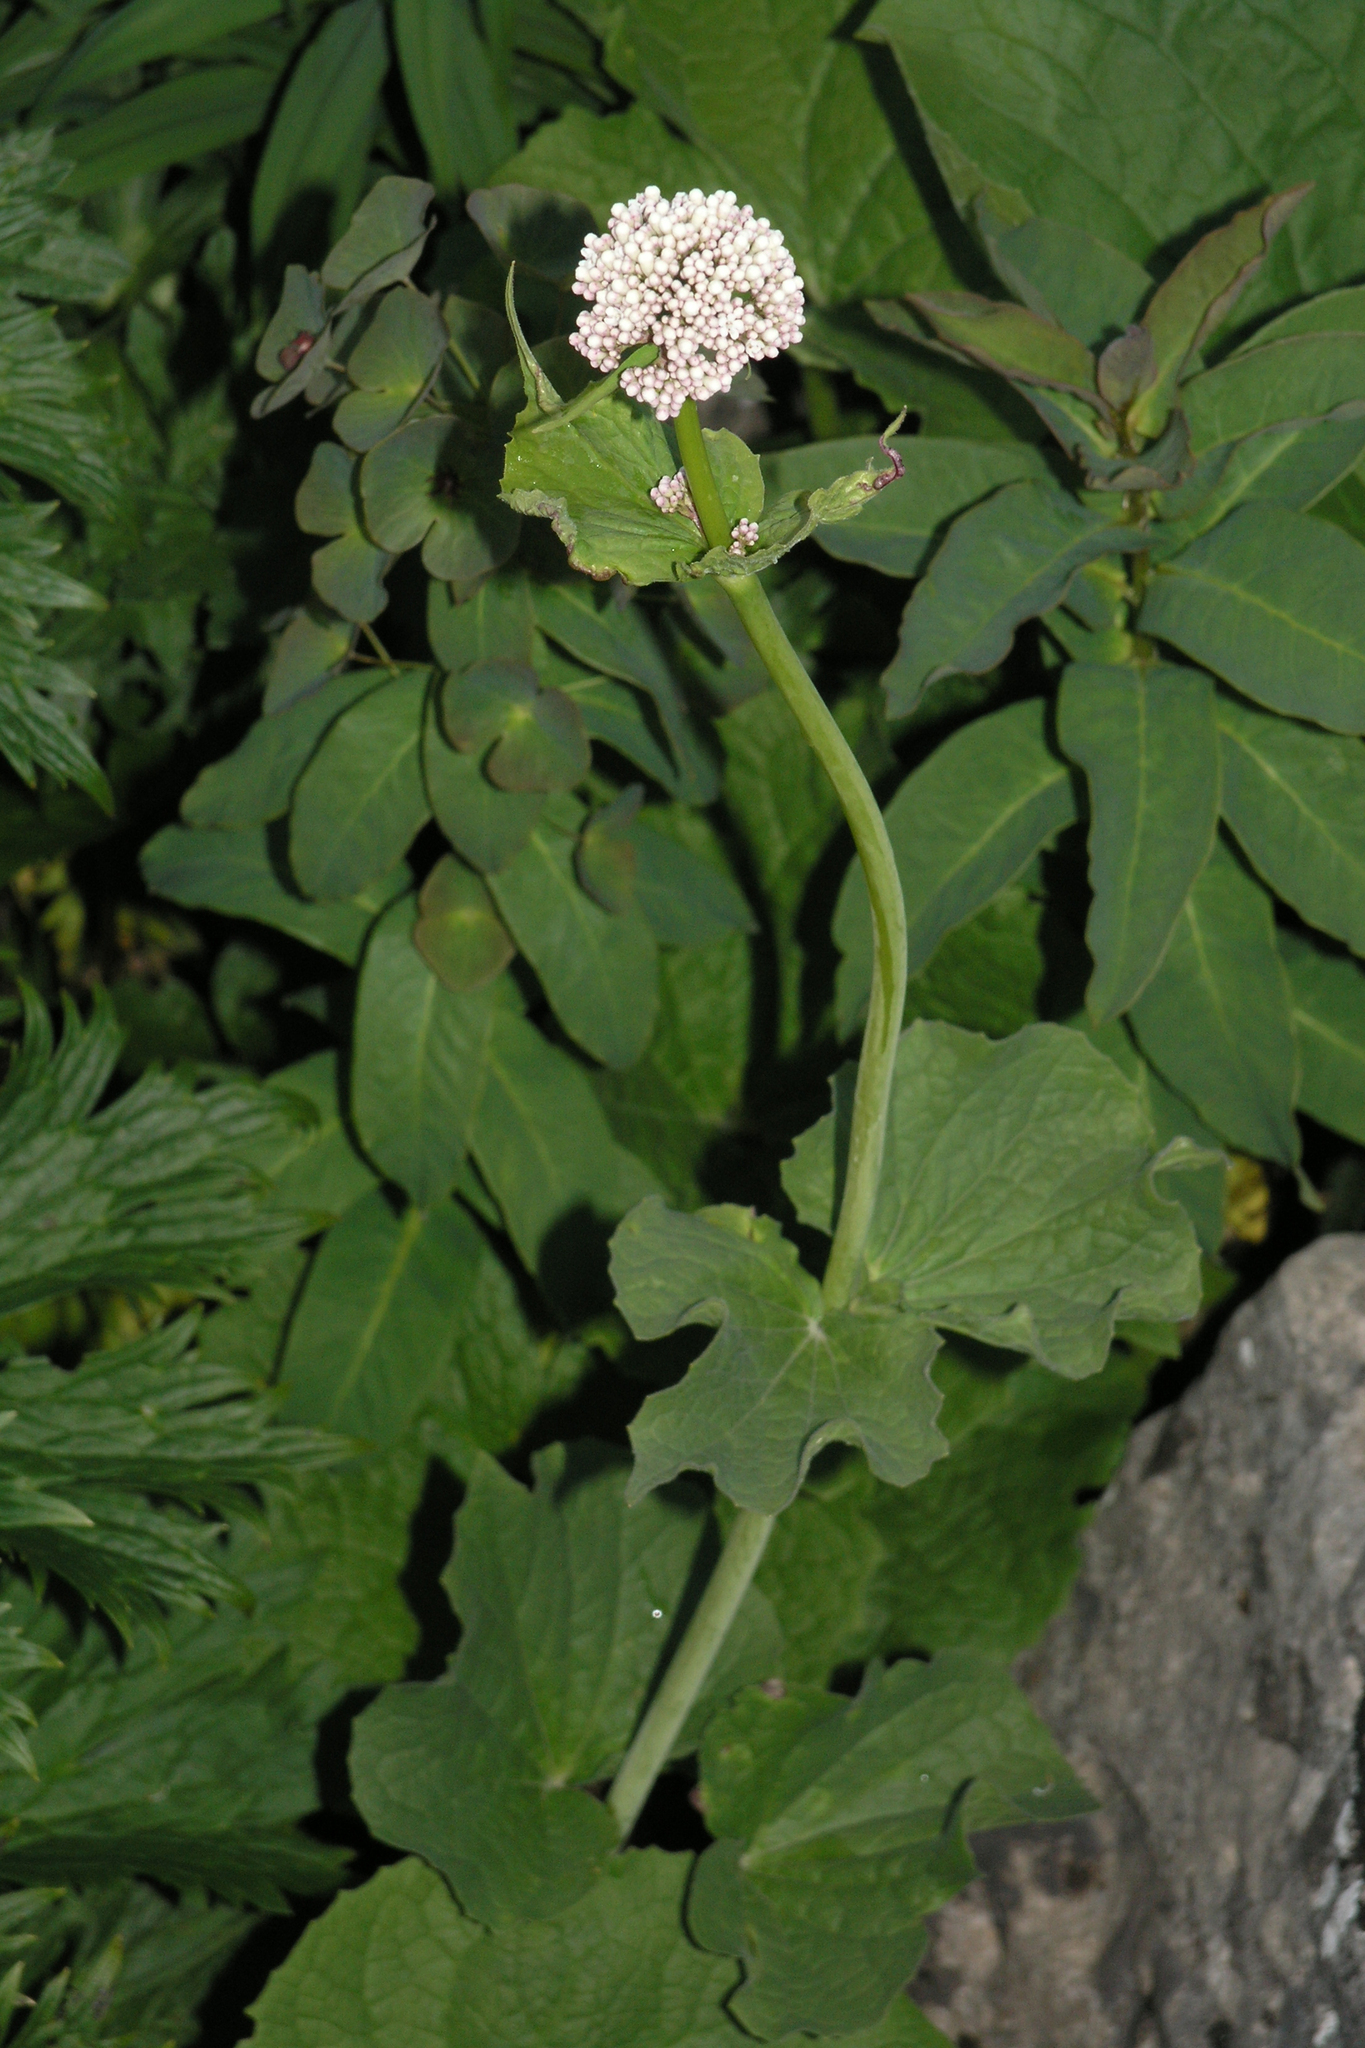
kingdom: Plantae
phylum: Tracheophyta
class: Magnoliopsida
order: Dipsacales
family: Caprifoliaceae
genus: Valeriana
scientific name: Valeriana alliariifolia
